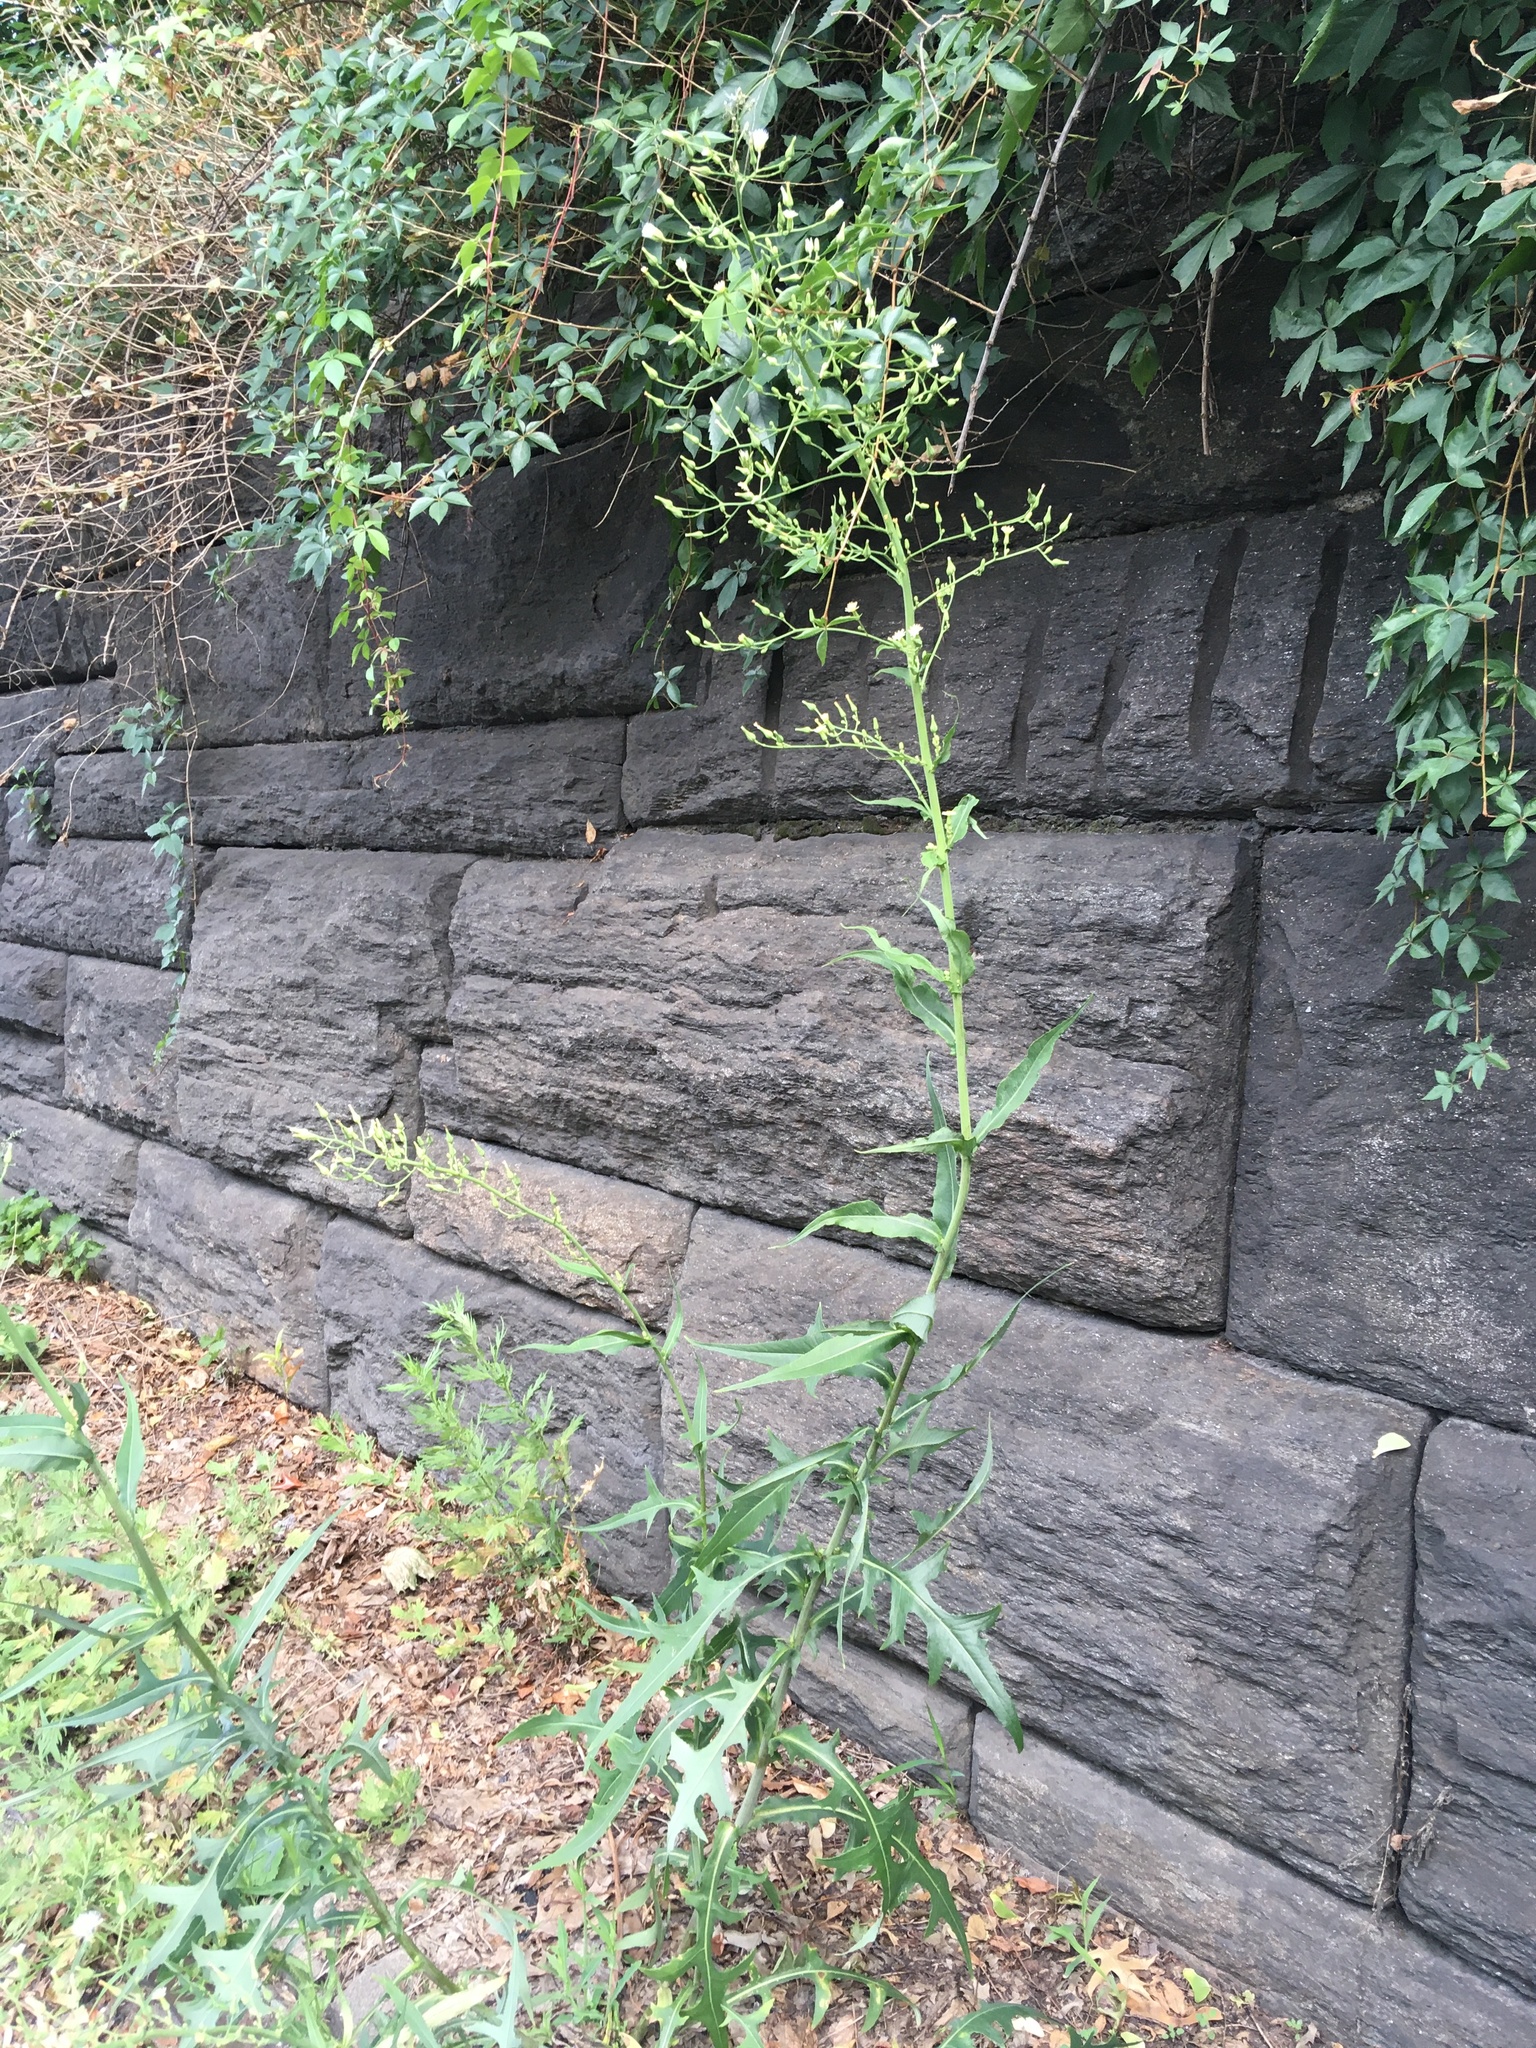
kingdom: Plantae
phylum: Tracheophyta
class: Magnoliopsida
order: Asterales
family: Asteraceae
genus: Lactuca
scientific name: Lactuca canadensis
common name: Canada lettuce
